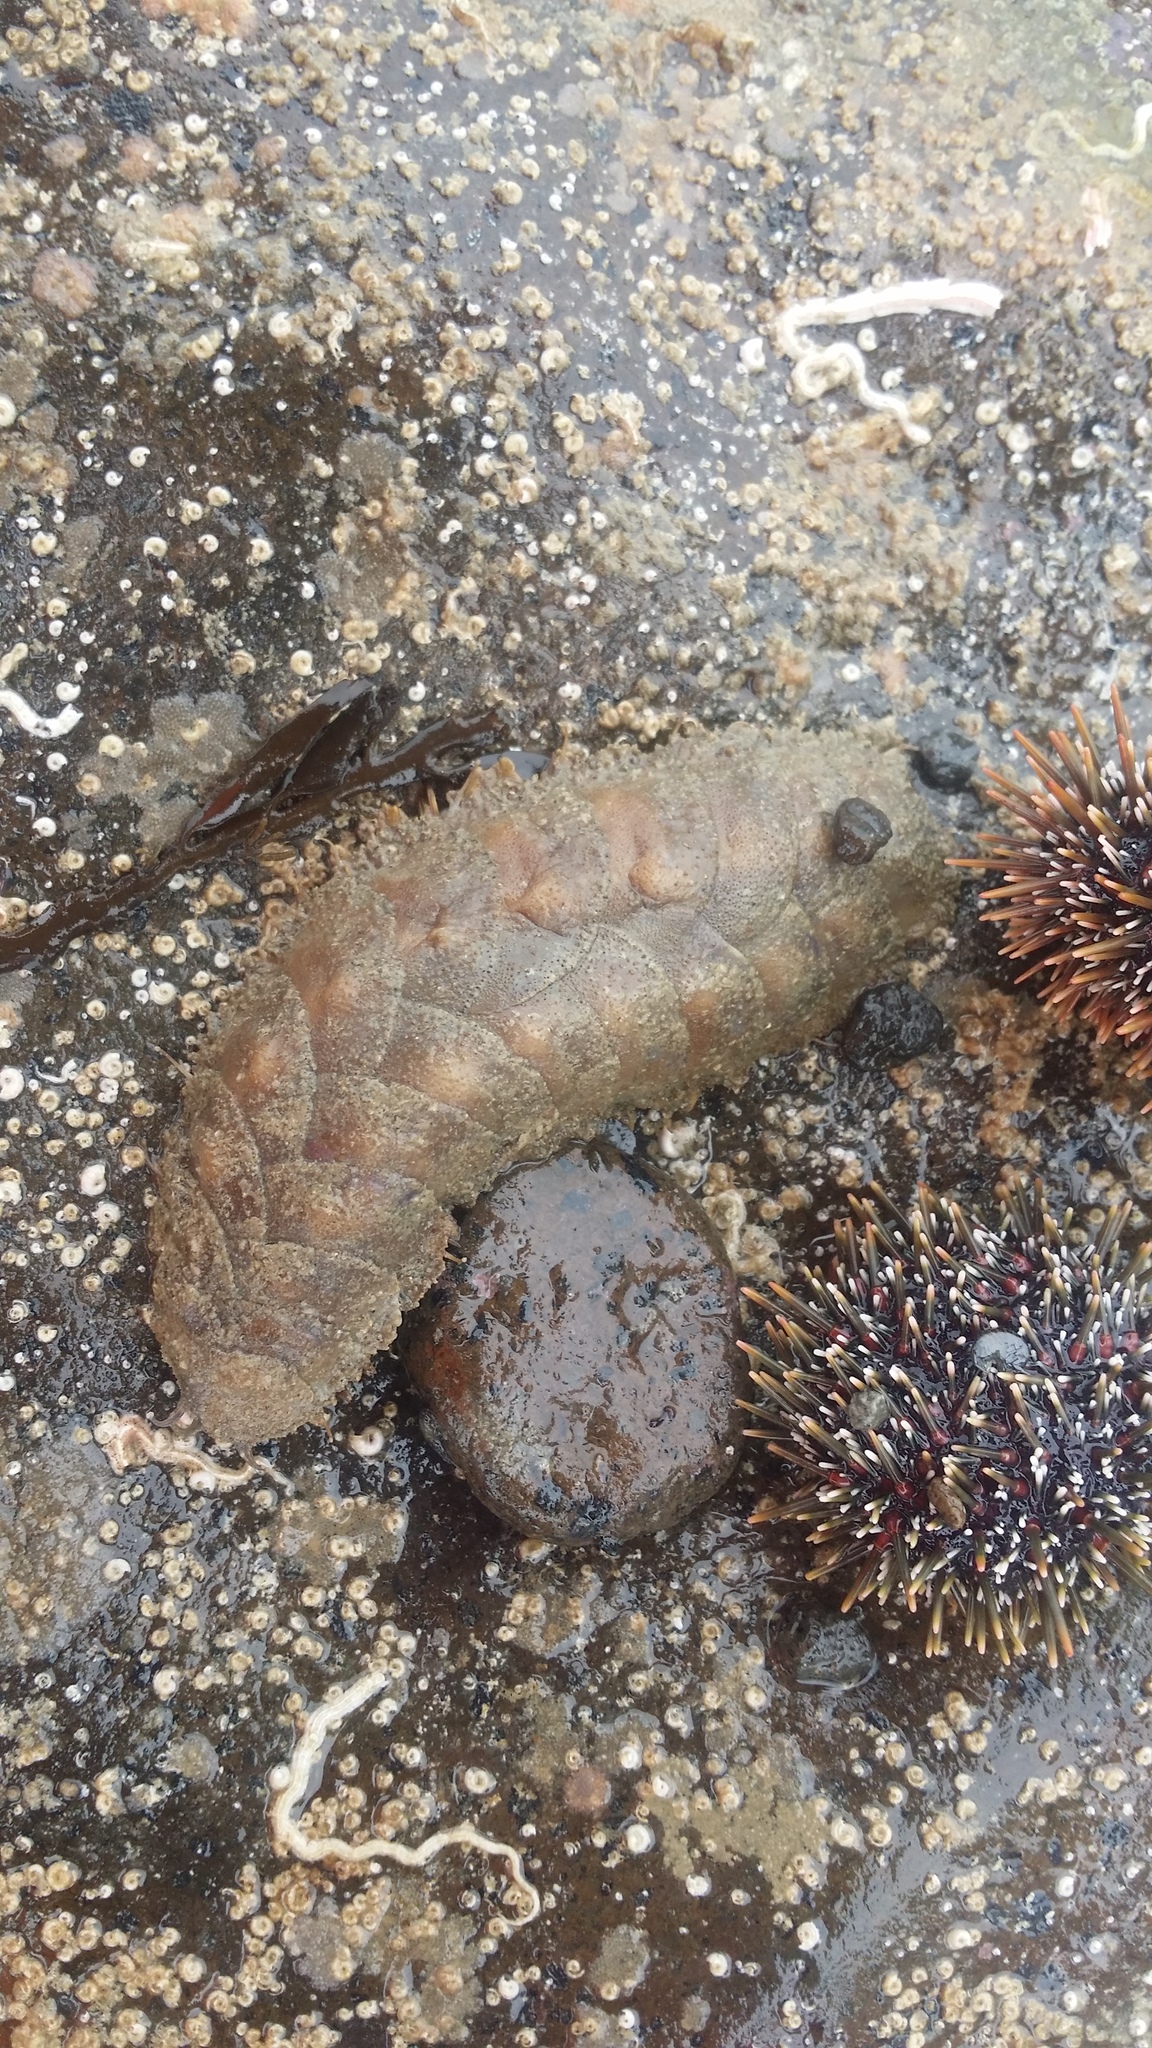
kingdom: Animalia
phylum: Annelida
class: Polychaeta
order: Phyllodocida
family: Polynoidae
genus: Euphione
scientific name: Euphione squamosa
